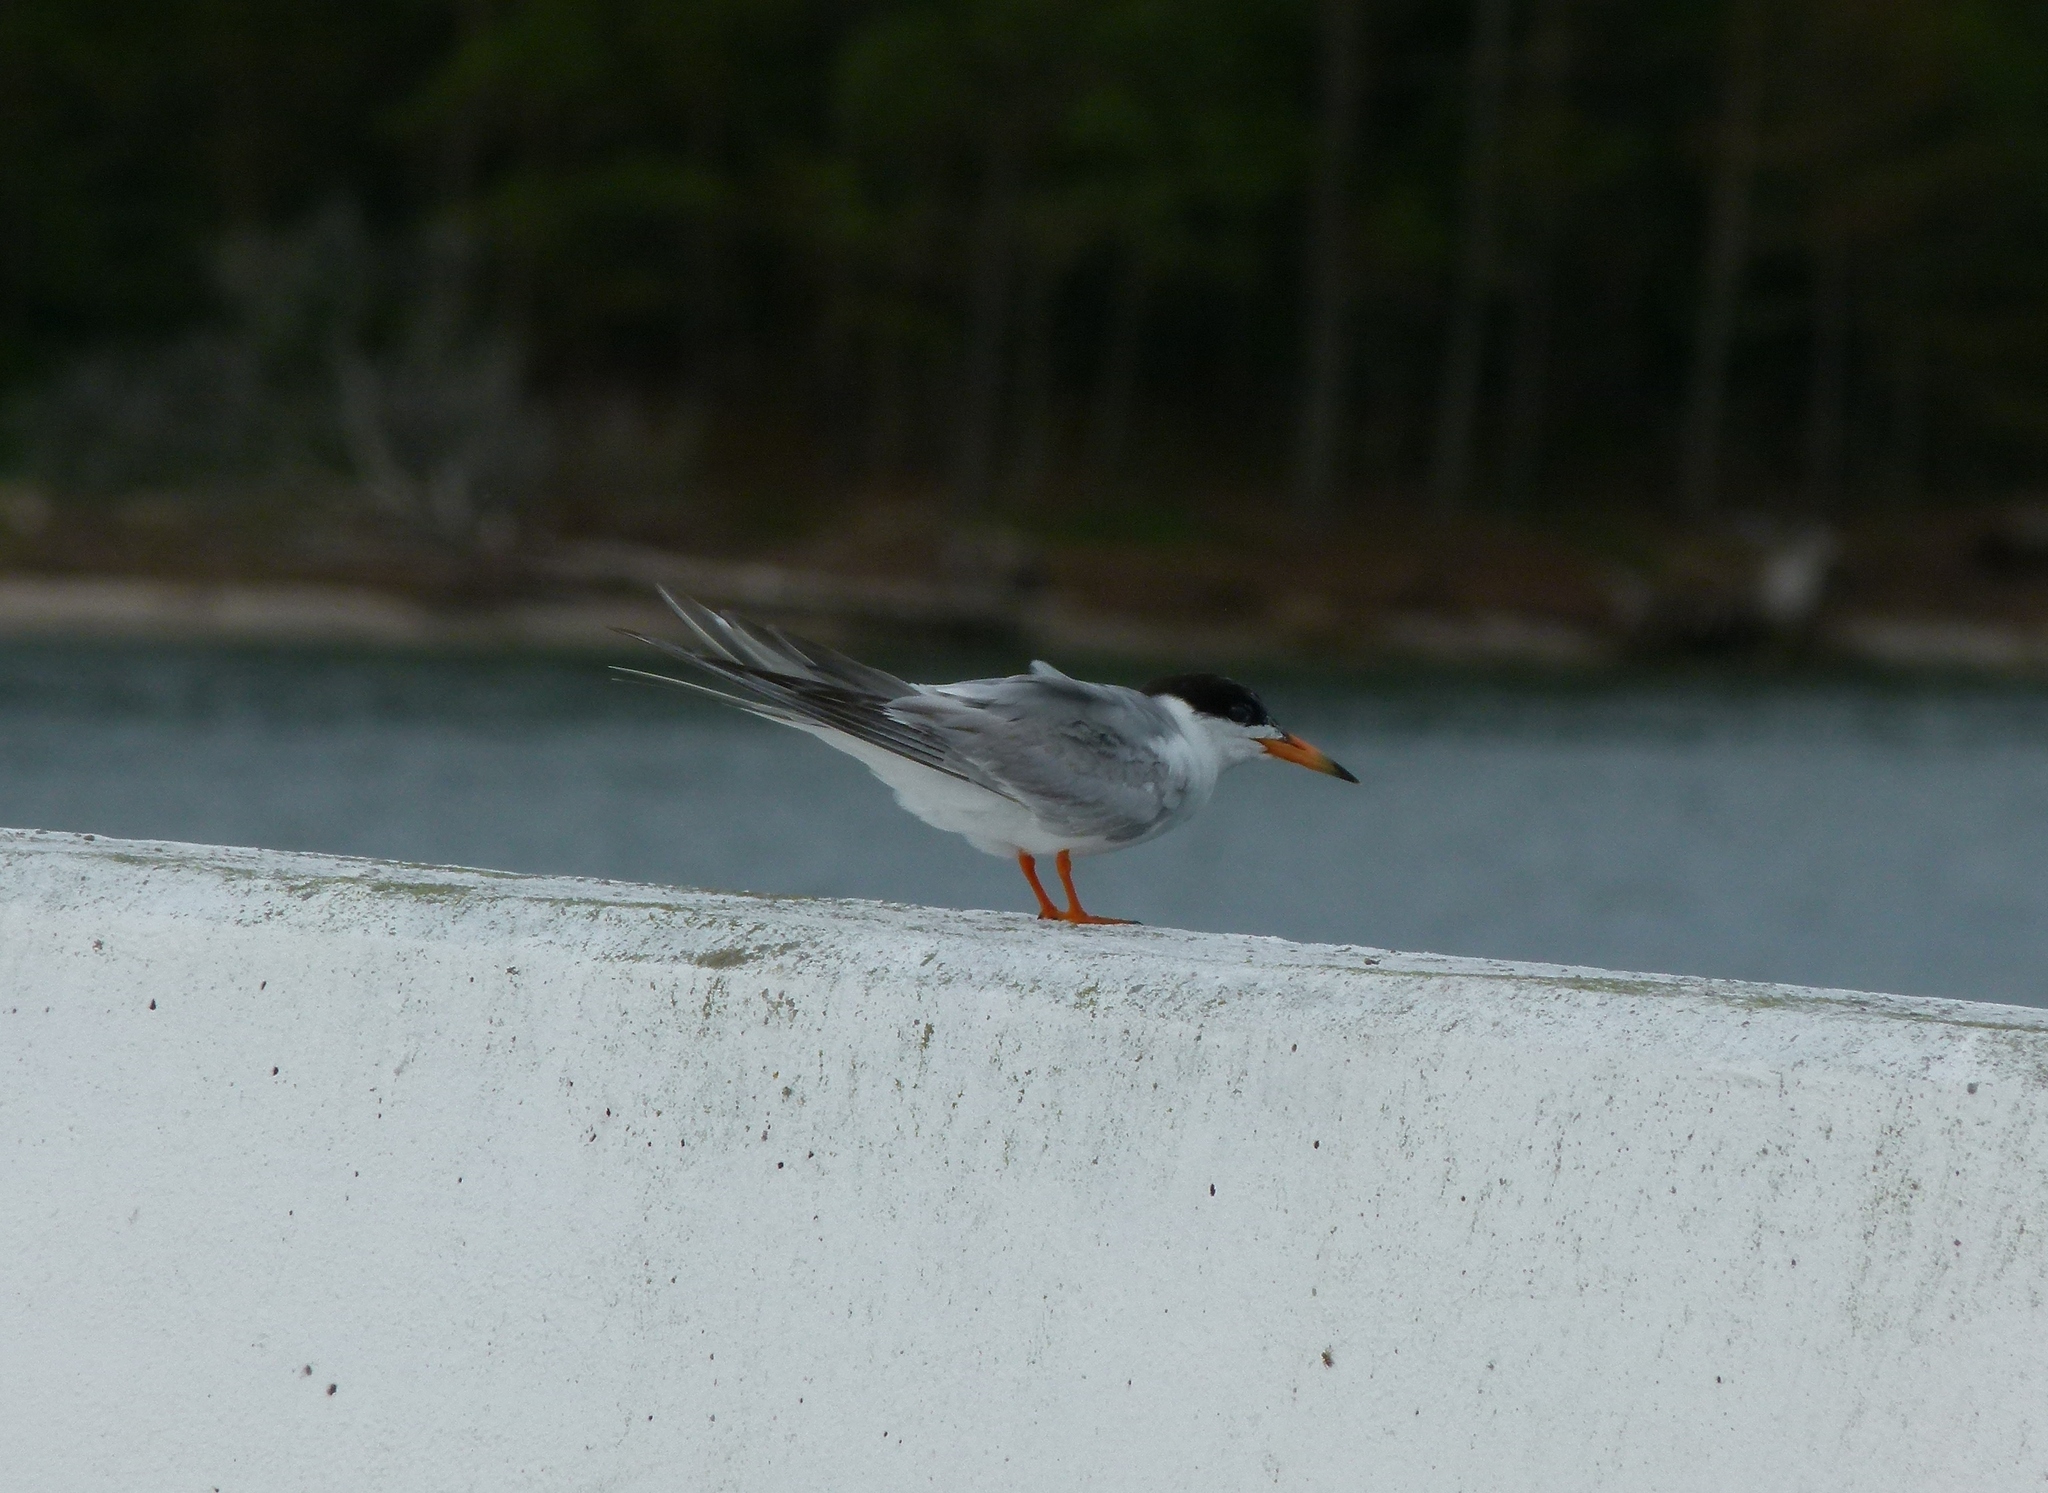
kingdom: Animalia
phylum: Chordata
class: Aves
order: Charadriiformes
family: Laridae
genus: Sterna
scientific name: Sterna forsteri
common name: Forster's tern
